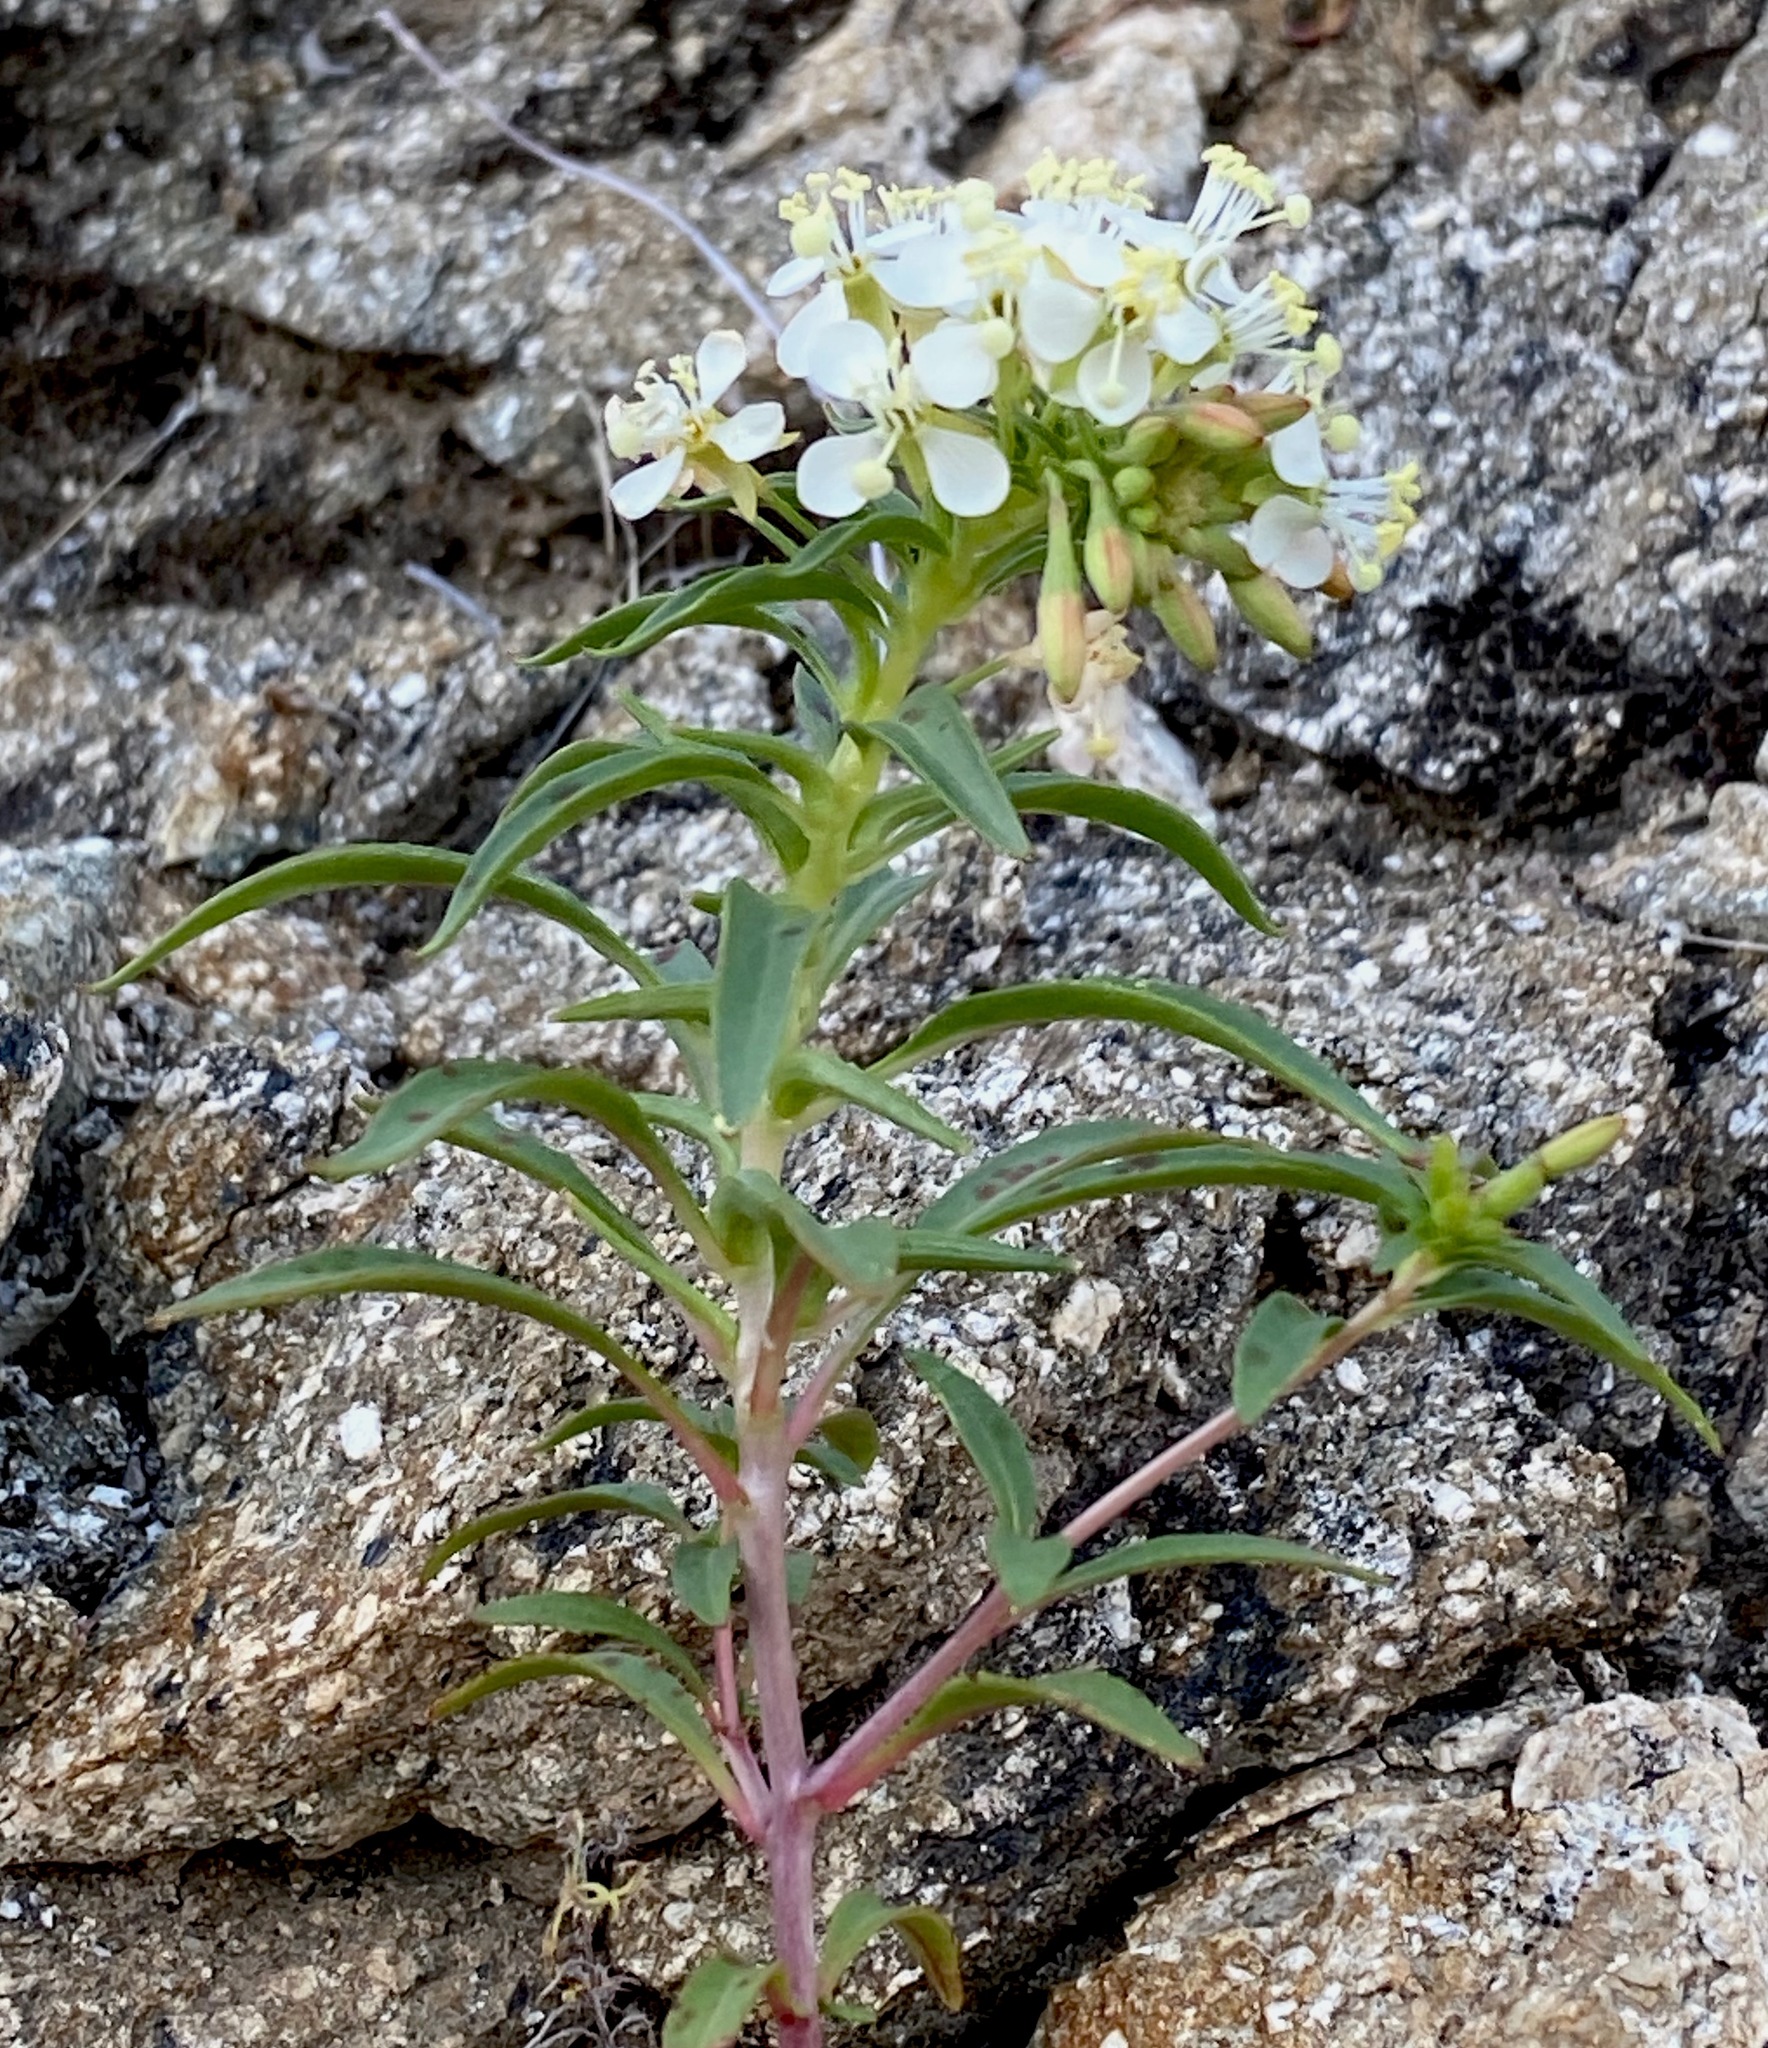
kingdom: Plantae
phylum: Tracheophyta
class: Magnoliopsida
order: Myrtales
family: Onagraceae
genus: Eremothera
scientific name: Eremothera boothii
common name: Booth's evening primrose
